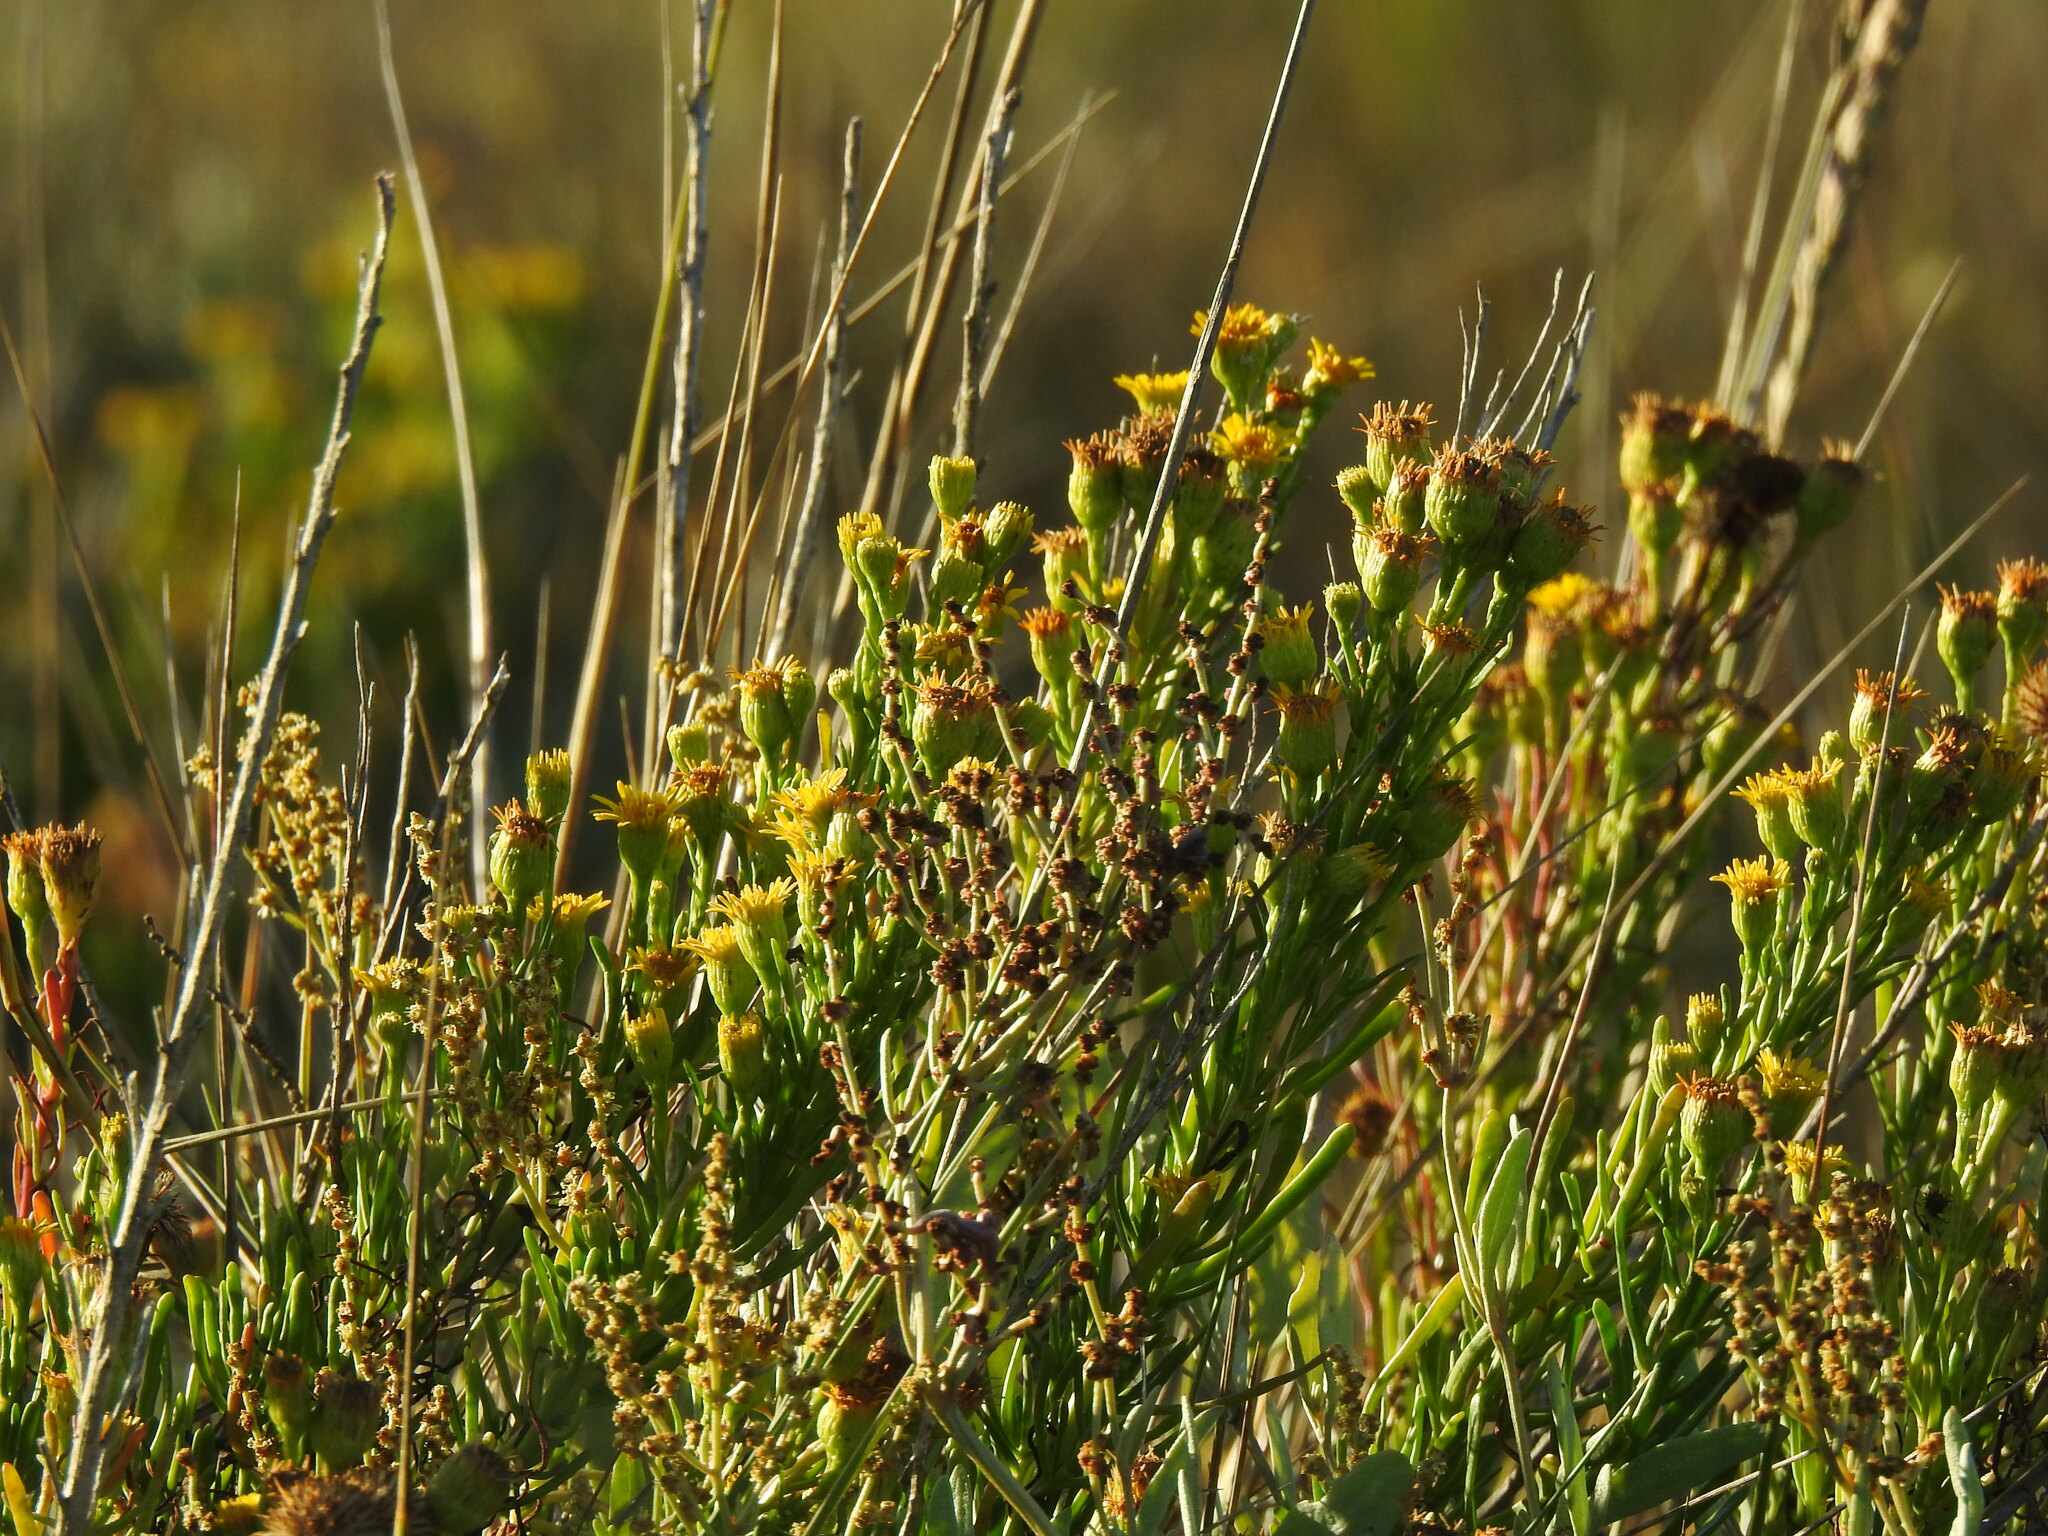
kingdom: Plantae
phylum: Tracheophyta
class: Magnoliopsida
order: Asterales
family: Asteraceae
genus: Limbarda
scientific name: Limbarda crithmoides
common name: Golden samphire
